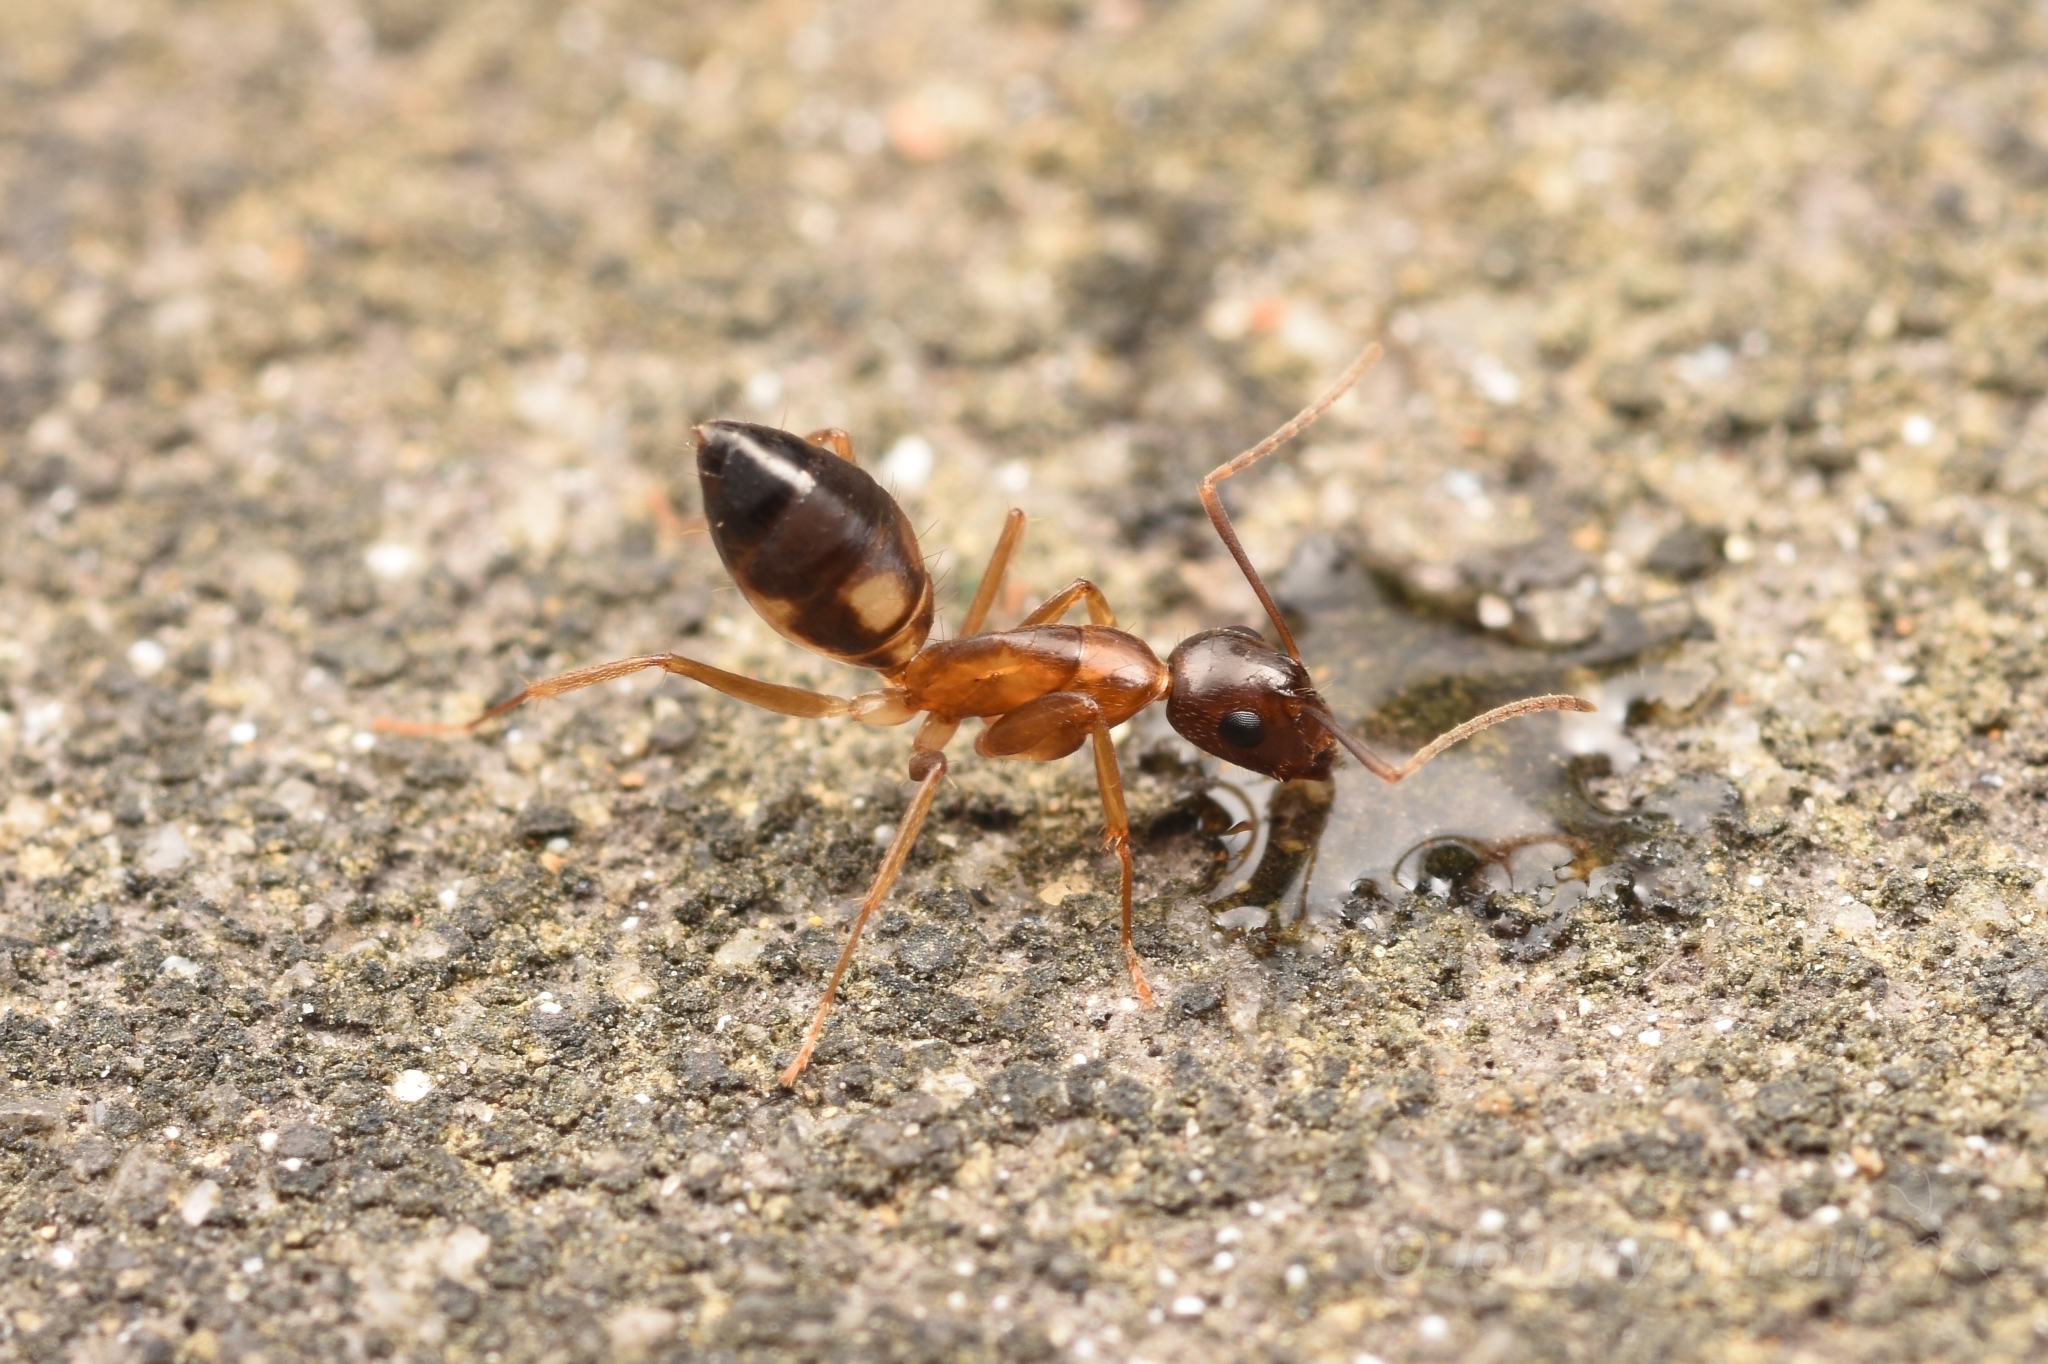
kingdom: Animalia
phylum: Arthropoda
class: Insecta
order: Hymenoptera
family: Formicidae
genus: Camponotus
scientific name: Camponotus albosparsus
